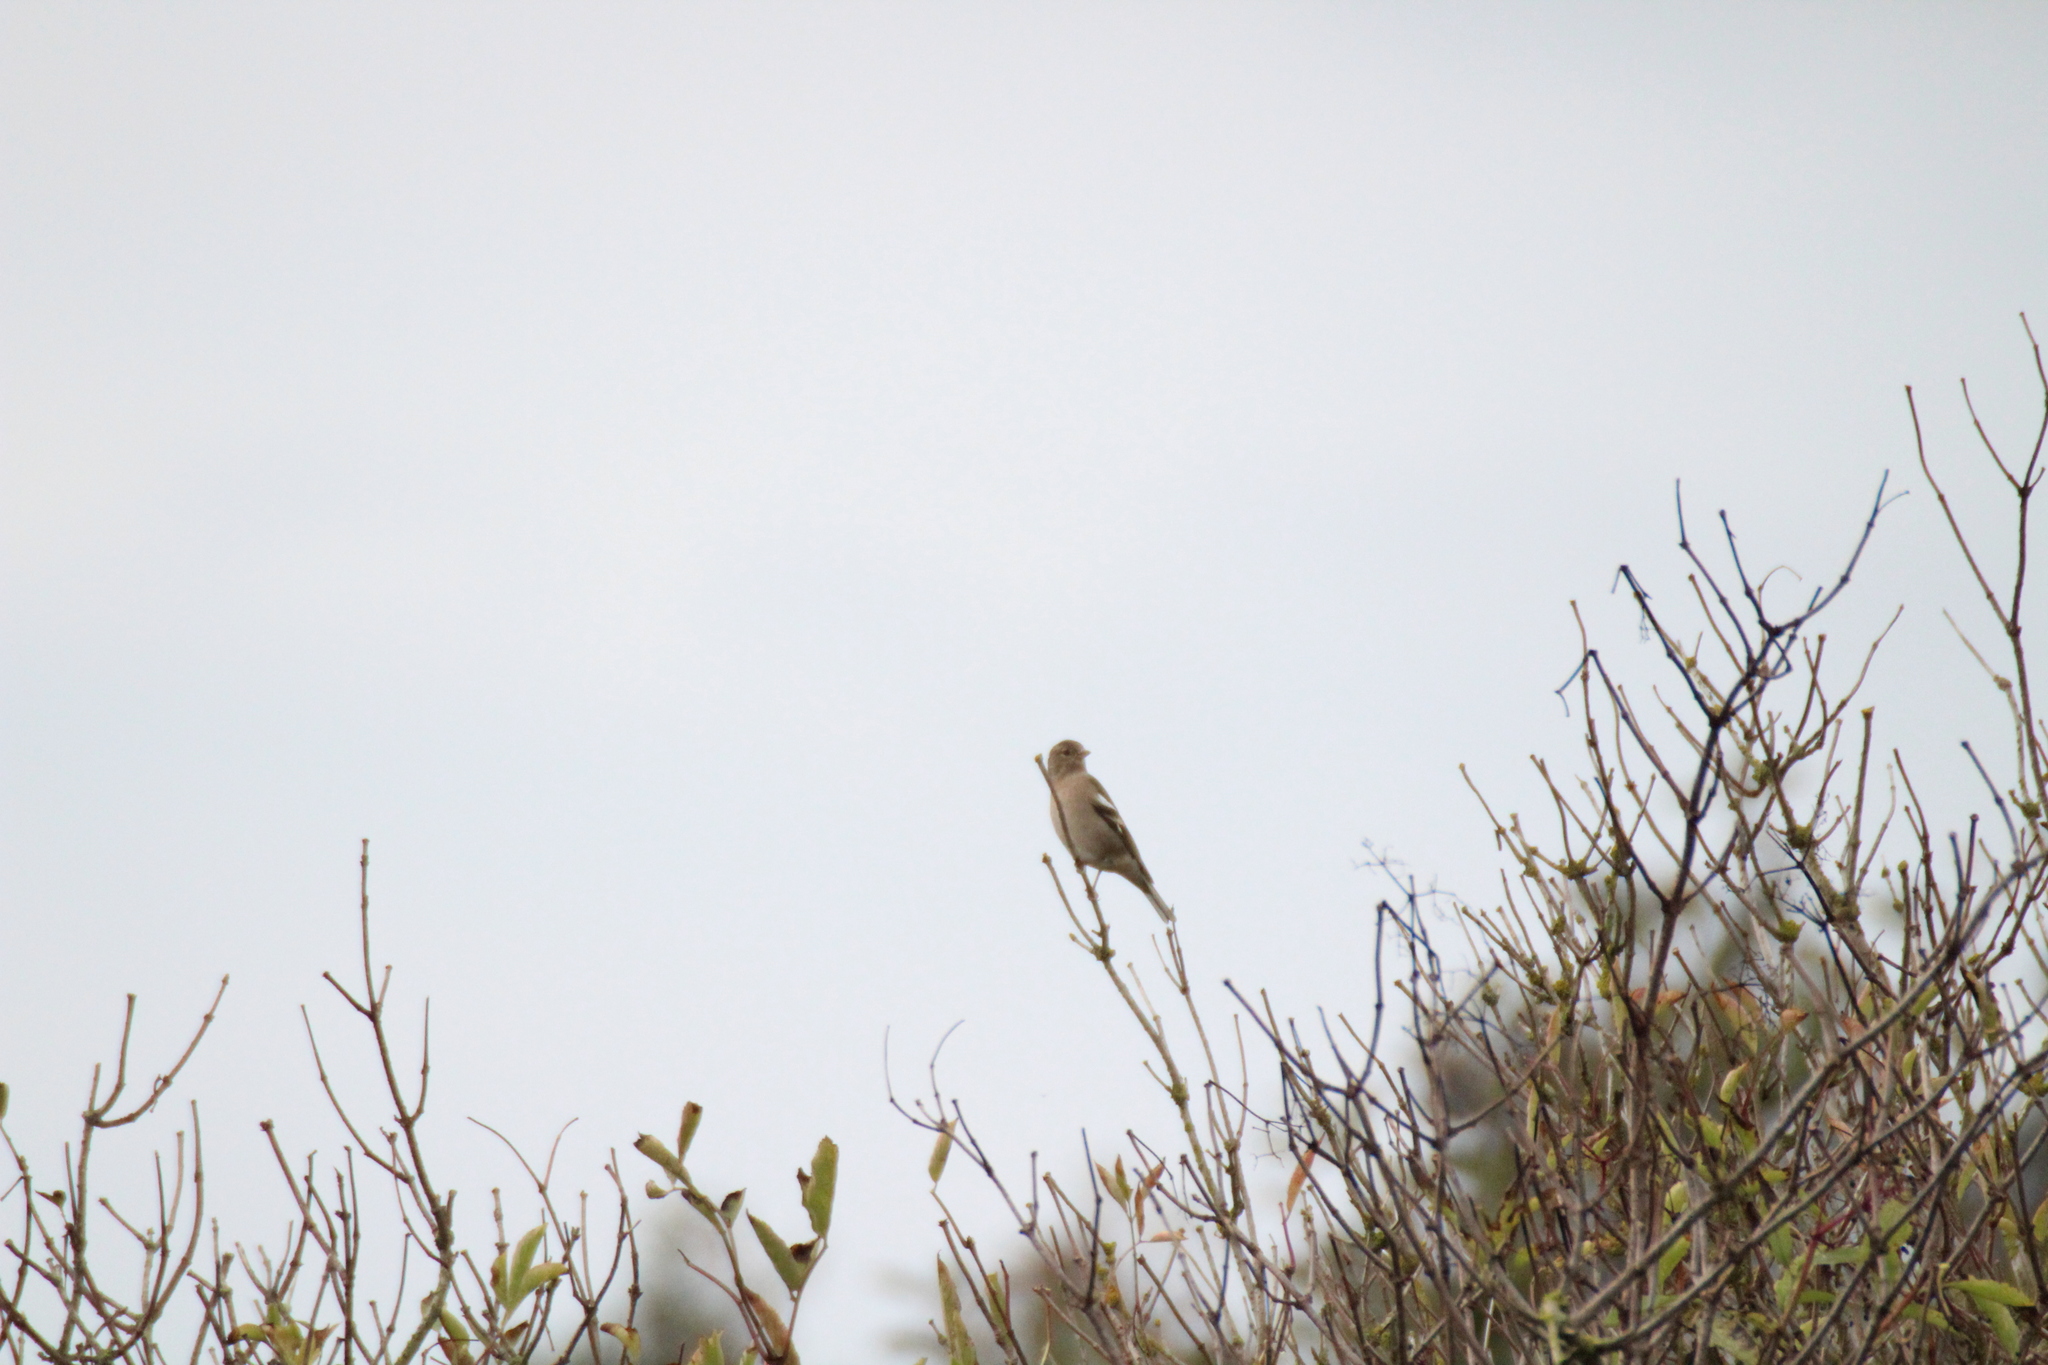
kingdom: Animalia
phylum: Chordata
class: Aves
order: Passeriformes
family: Fringillidae
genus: Fringilla
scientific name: Fringilla coelebs
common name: Common chaffinch
